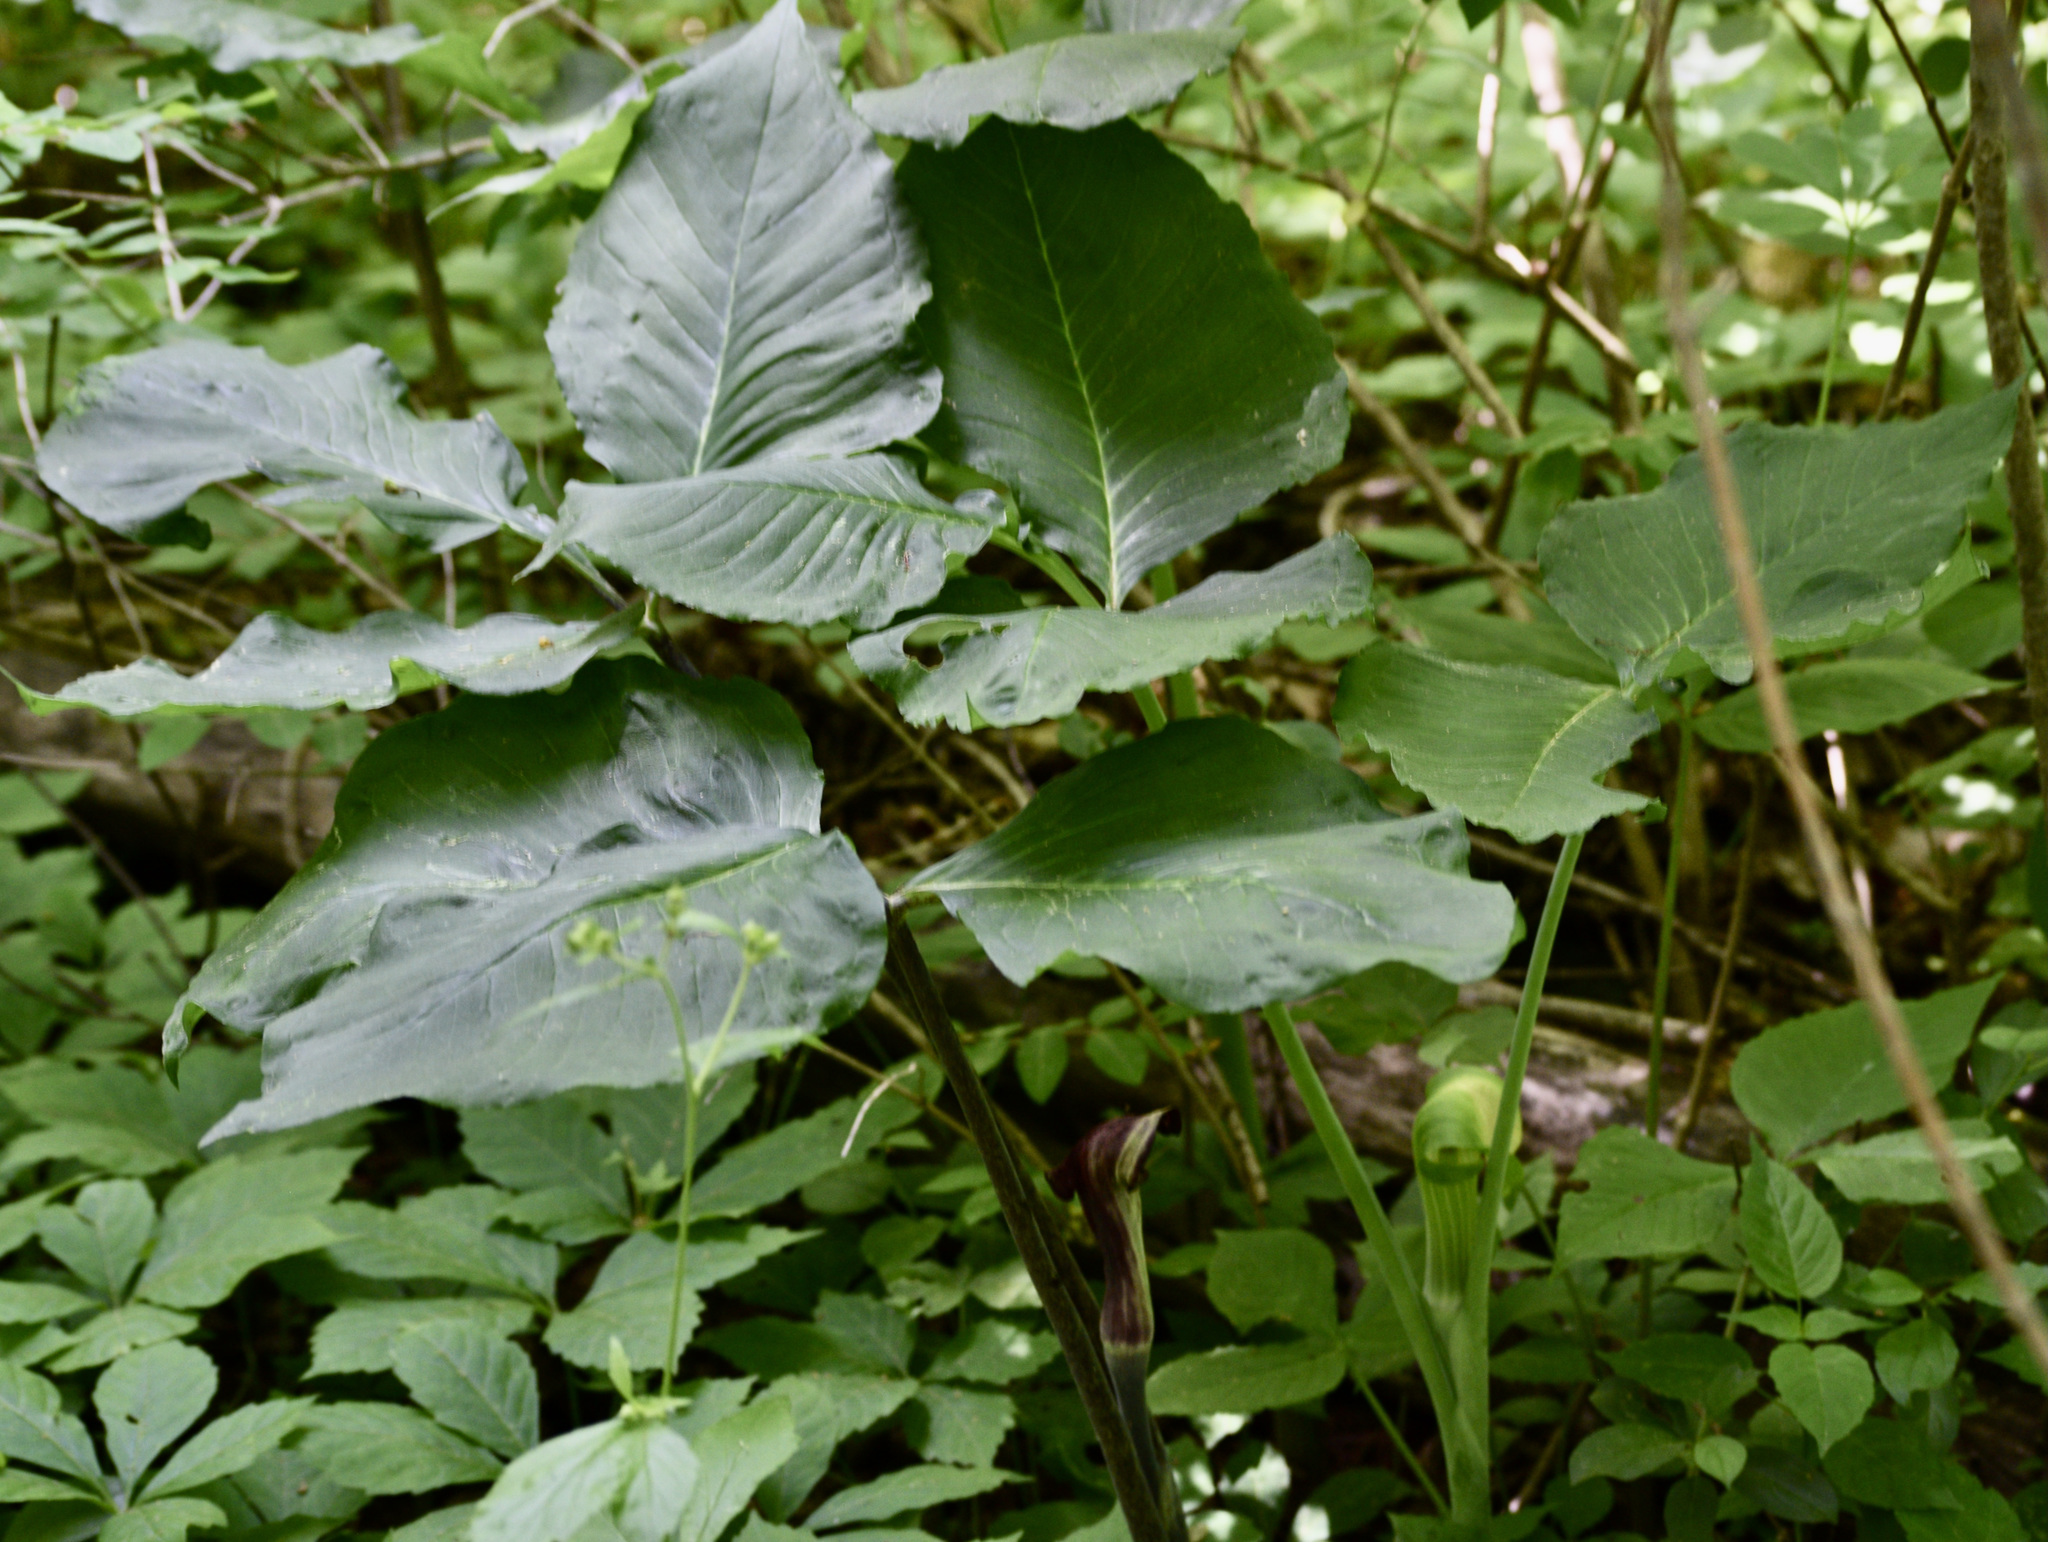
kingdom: Plantae
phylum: Tracheophyta
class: Liliopsida
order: Alismatales
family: Araceae
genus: Arisaema
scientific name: Arisaema triphyllum
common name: Jack-in-the-pulpit
